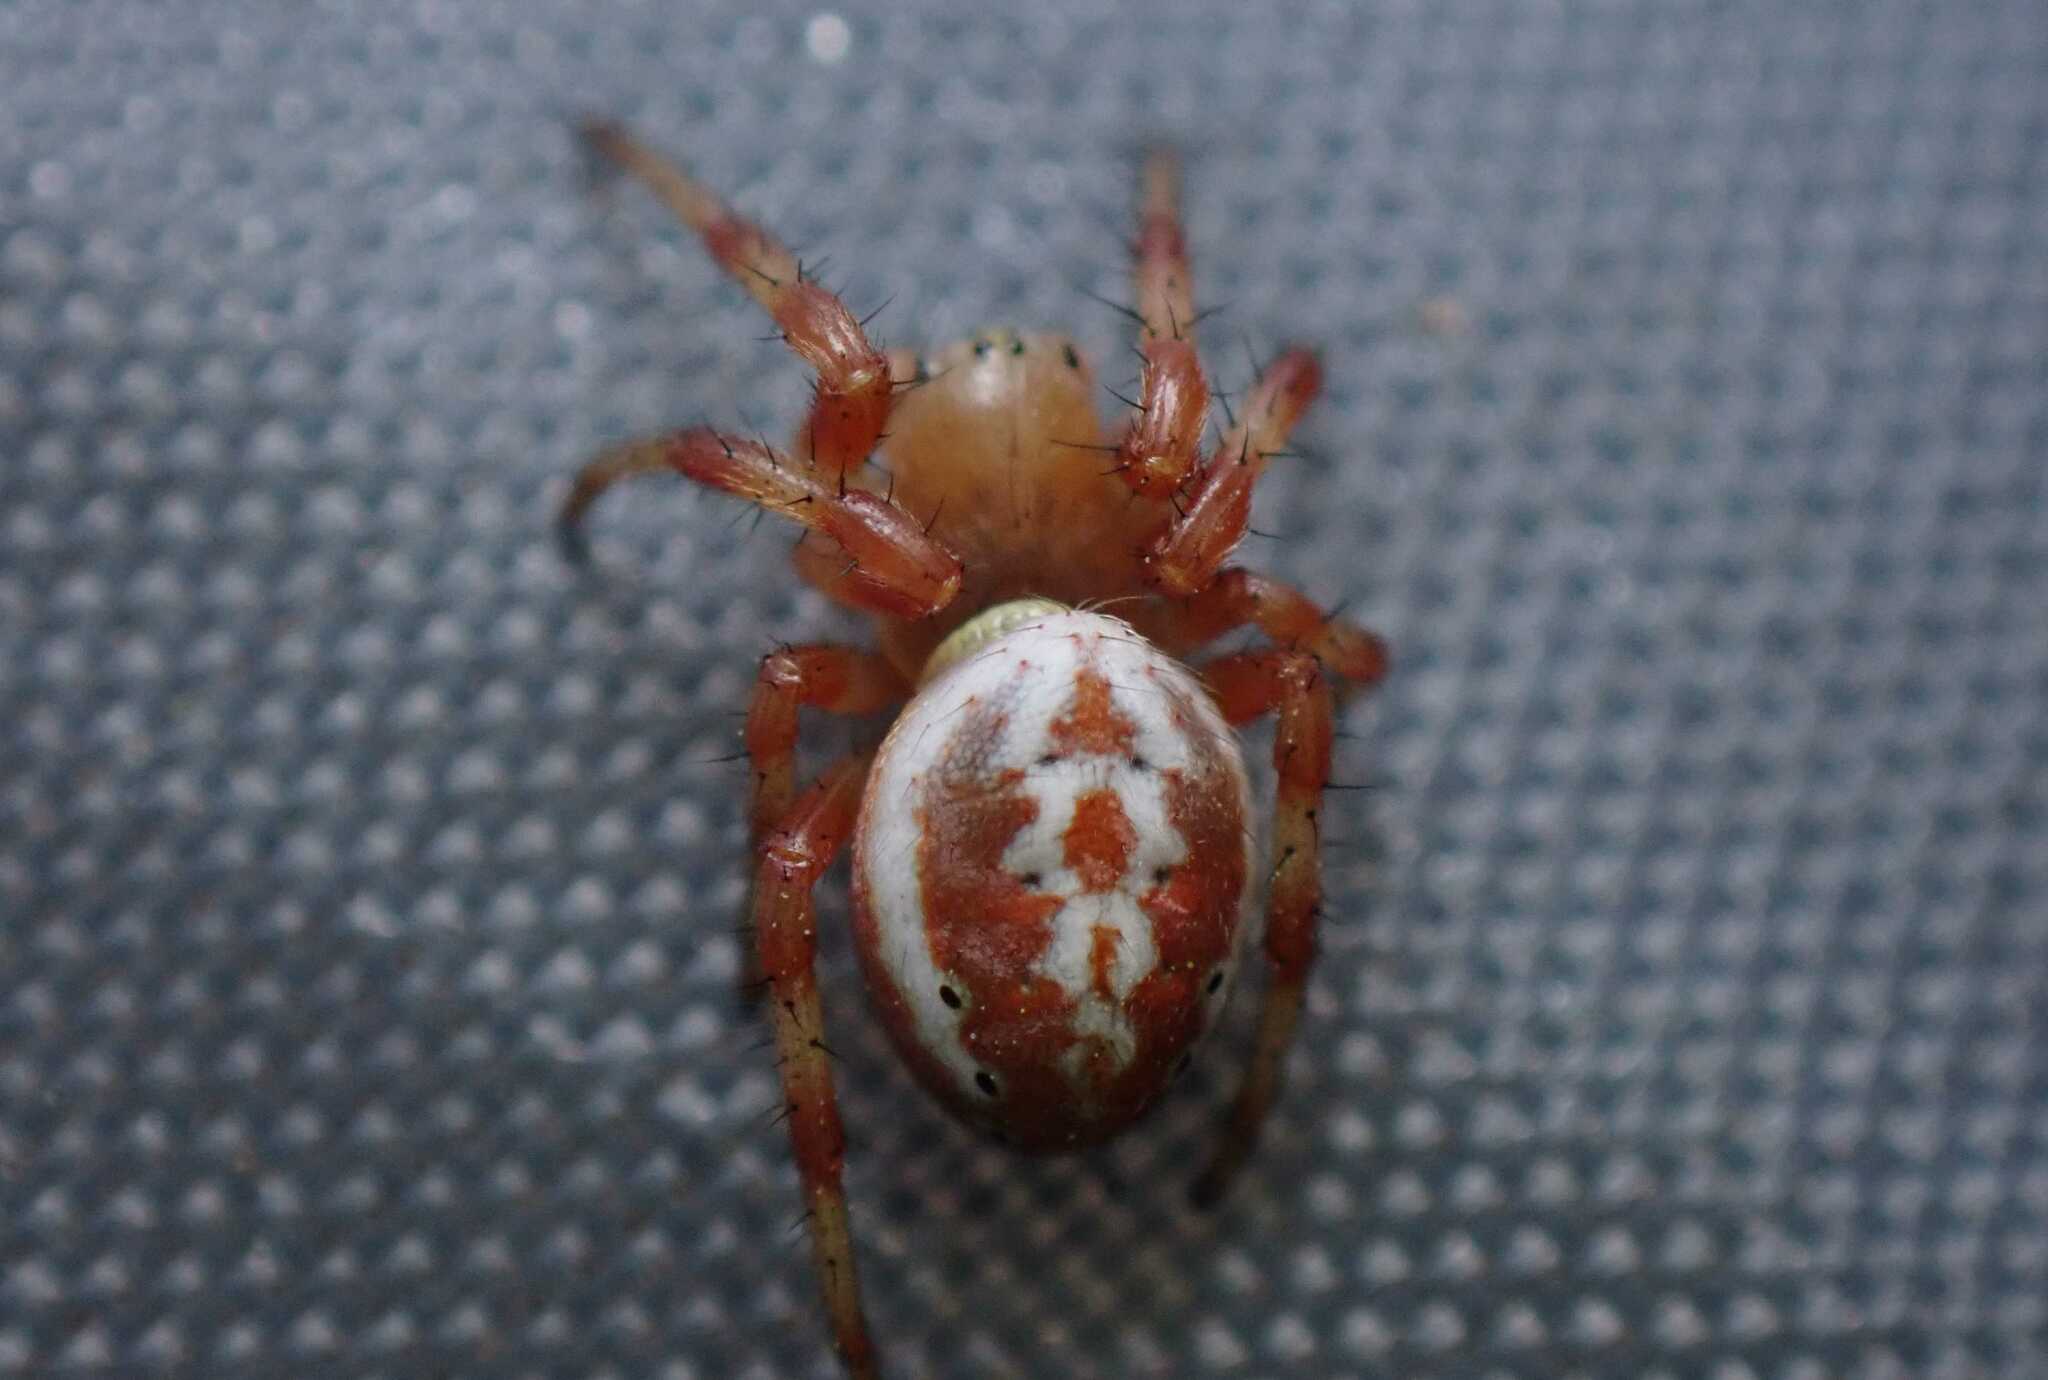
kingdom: Animalia
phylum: Arthropoda
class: Arachnida
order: Araneae
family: Araneidae
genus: Araniella
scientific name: Araniella displicata
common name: Sixspotted orb weaver
